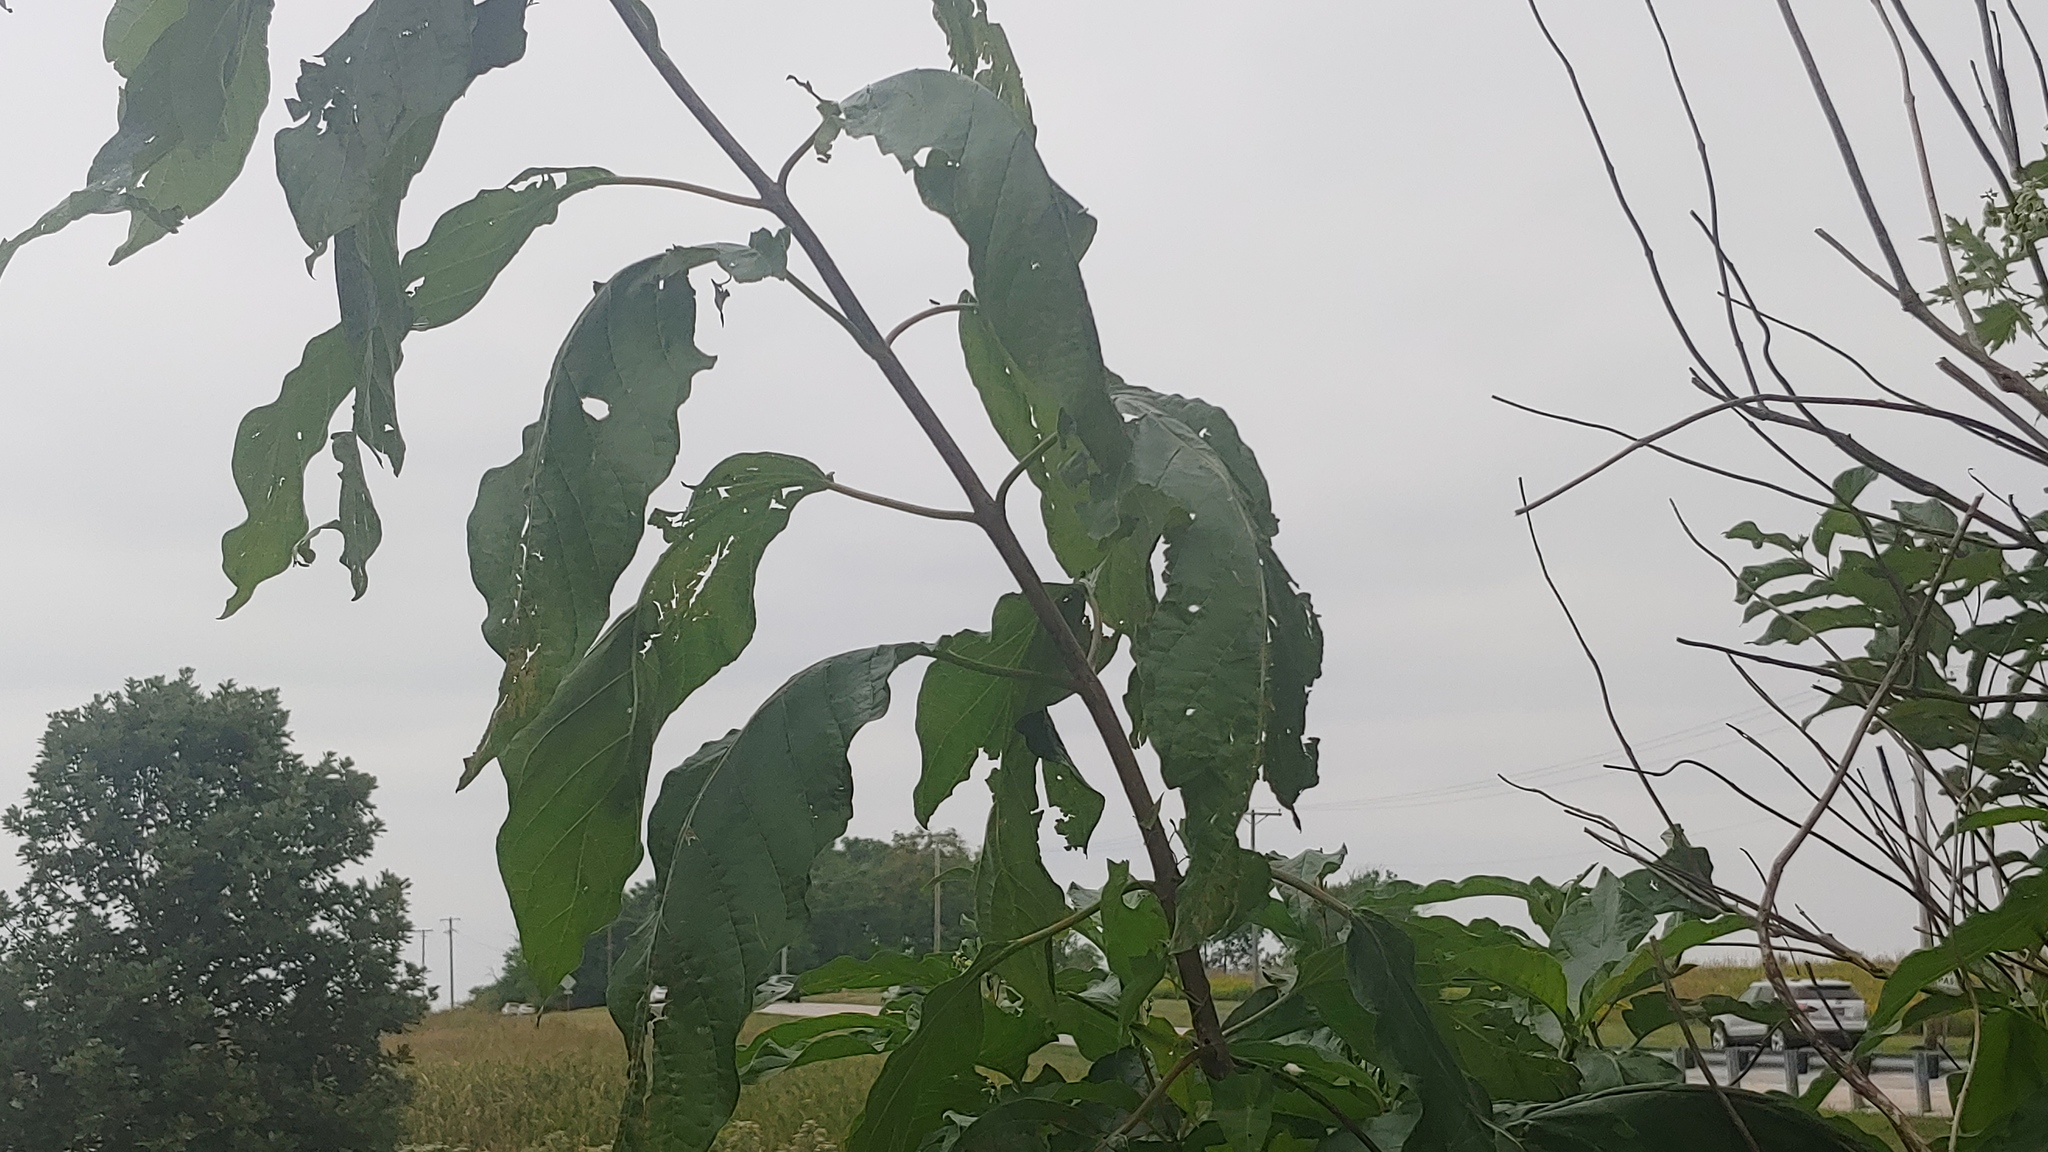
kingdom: Plantae
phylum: Tracheophyta
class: Magnoliopsida
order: Gentianales
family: Rubiaceae
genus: Cephalanthus
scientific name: Cephalanthus occidentalis
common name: Button-willow
